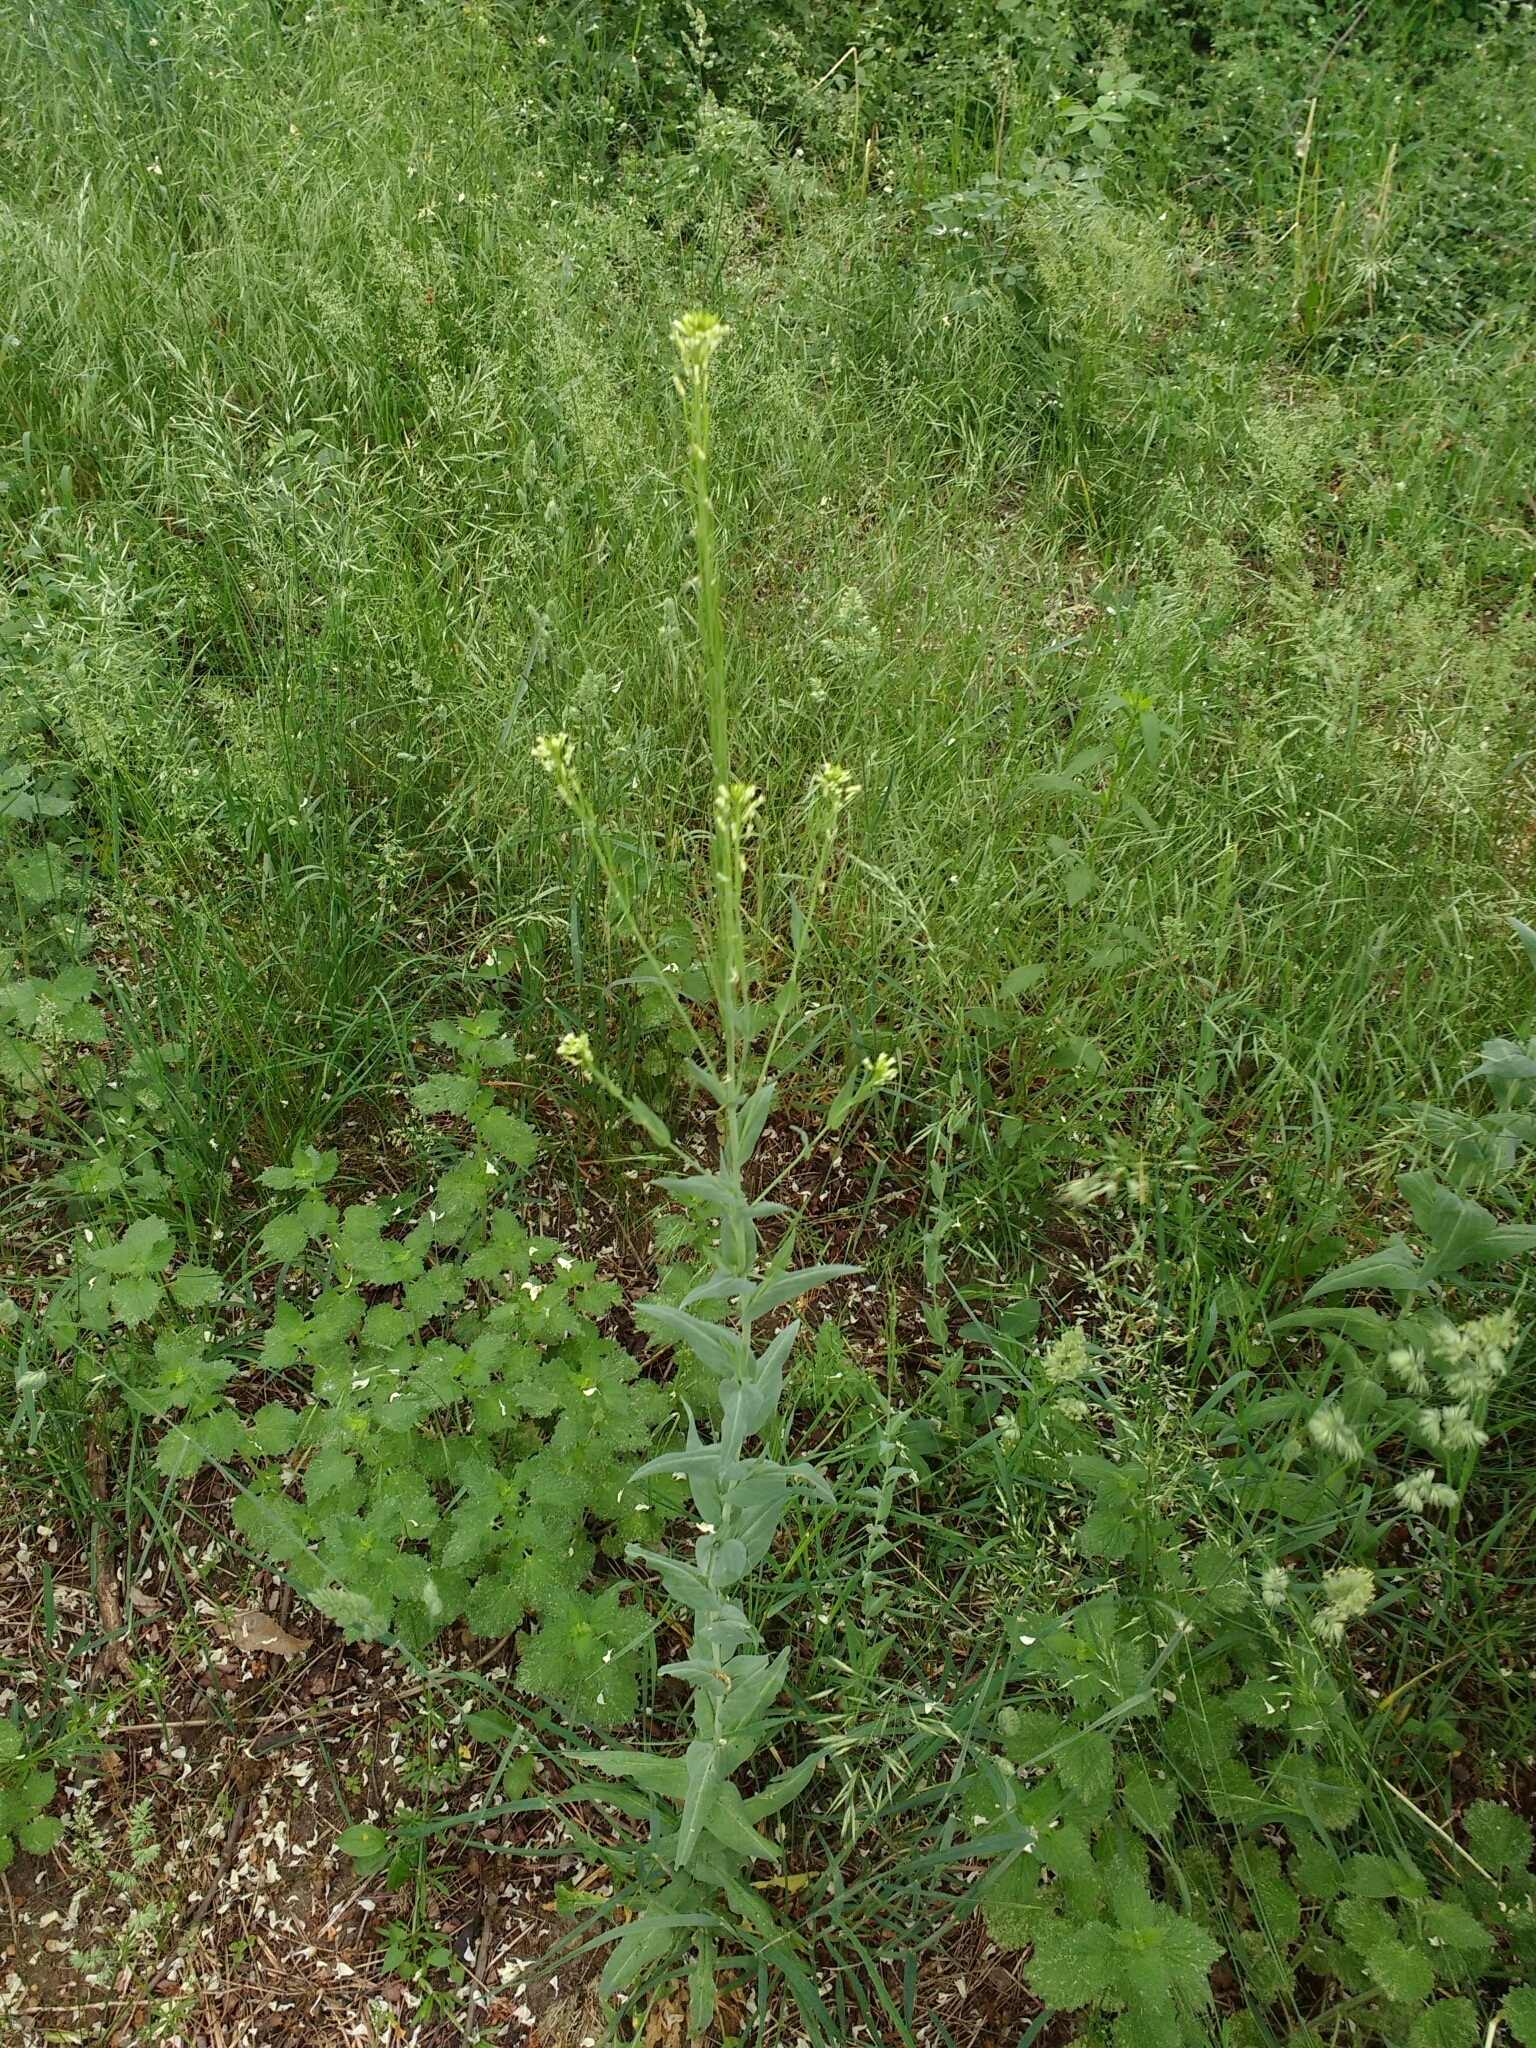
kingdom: Plantae
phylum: Tracheophyta
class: Magnoliopsida
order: Brassicales
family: Brassicaceae
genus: Turritis
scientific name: Turritis glabra
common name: Tower rockcress
